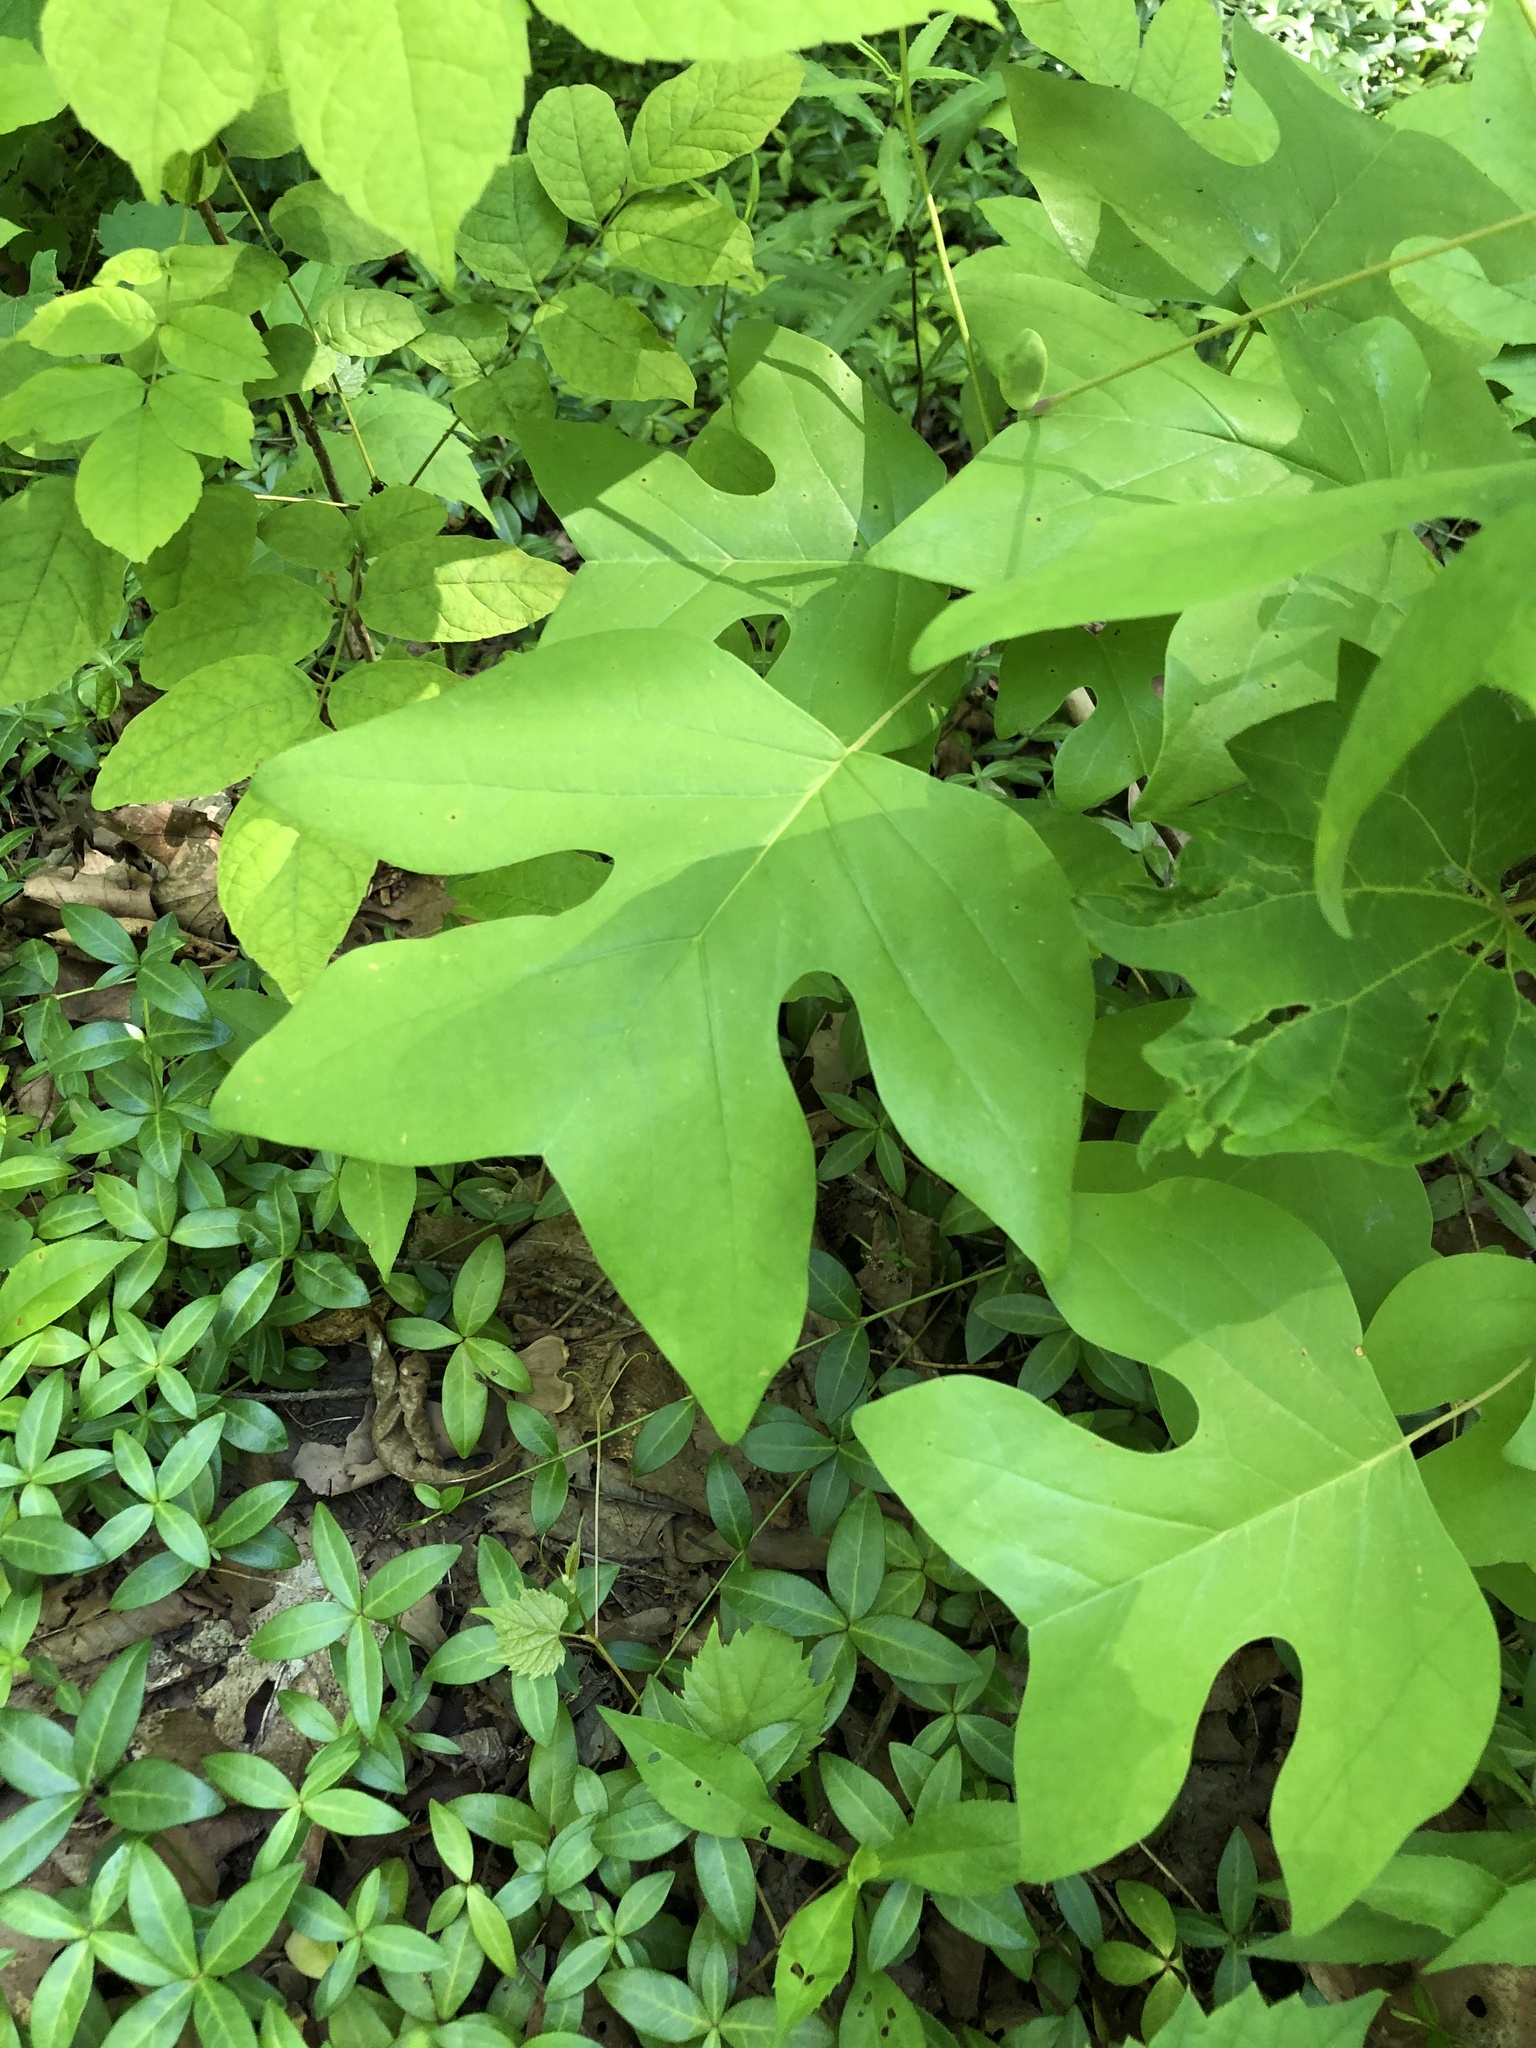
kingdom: Plantae
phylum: Tracheophyta
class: Magnoliopsida
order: Magnoliales
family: Magnoliaceae
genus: Liriodendron
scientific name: Liriodendron tulipifera
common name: Tulip tree
